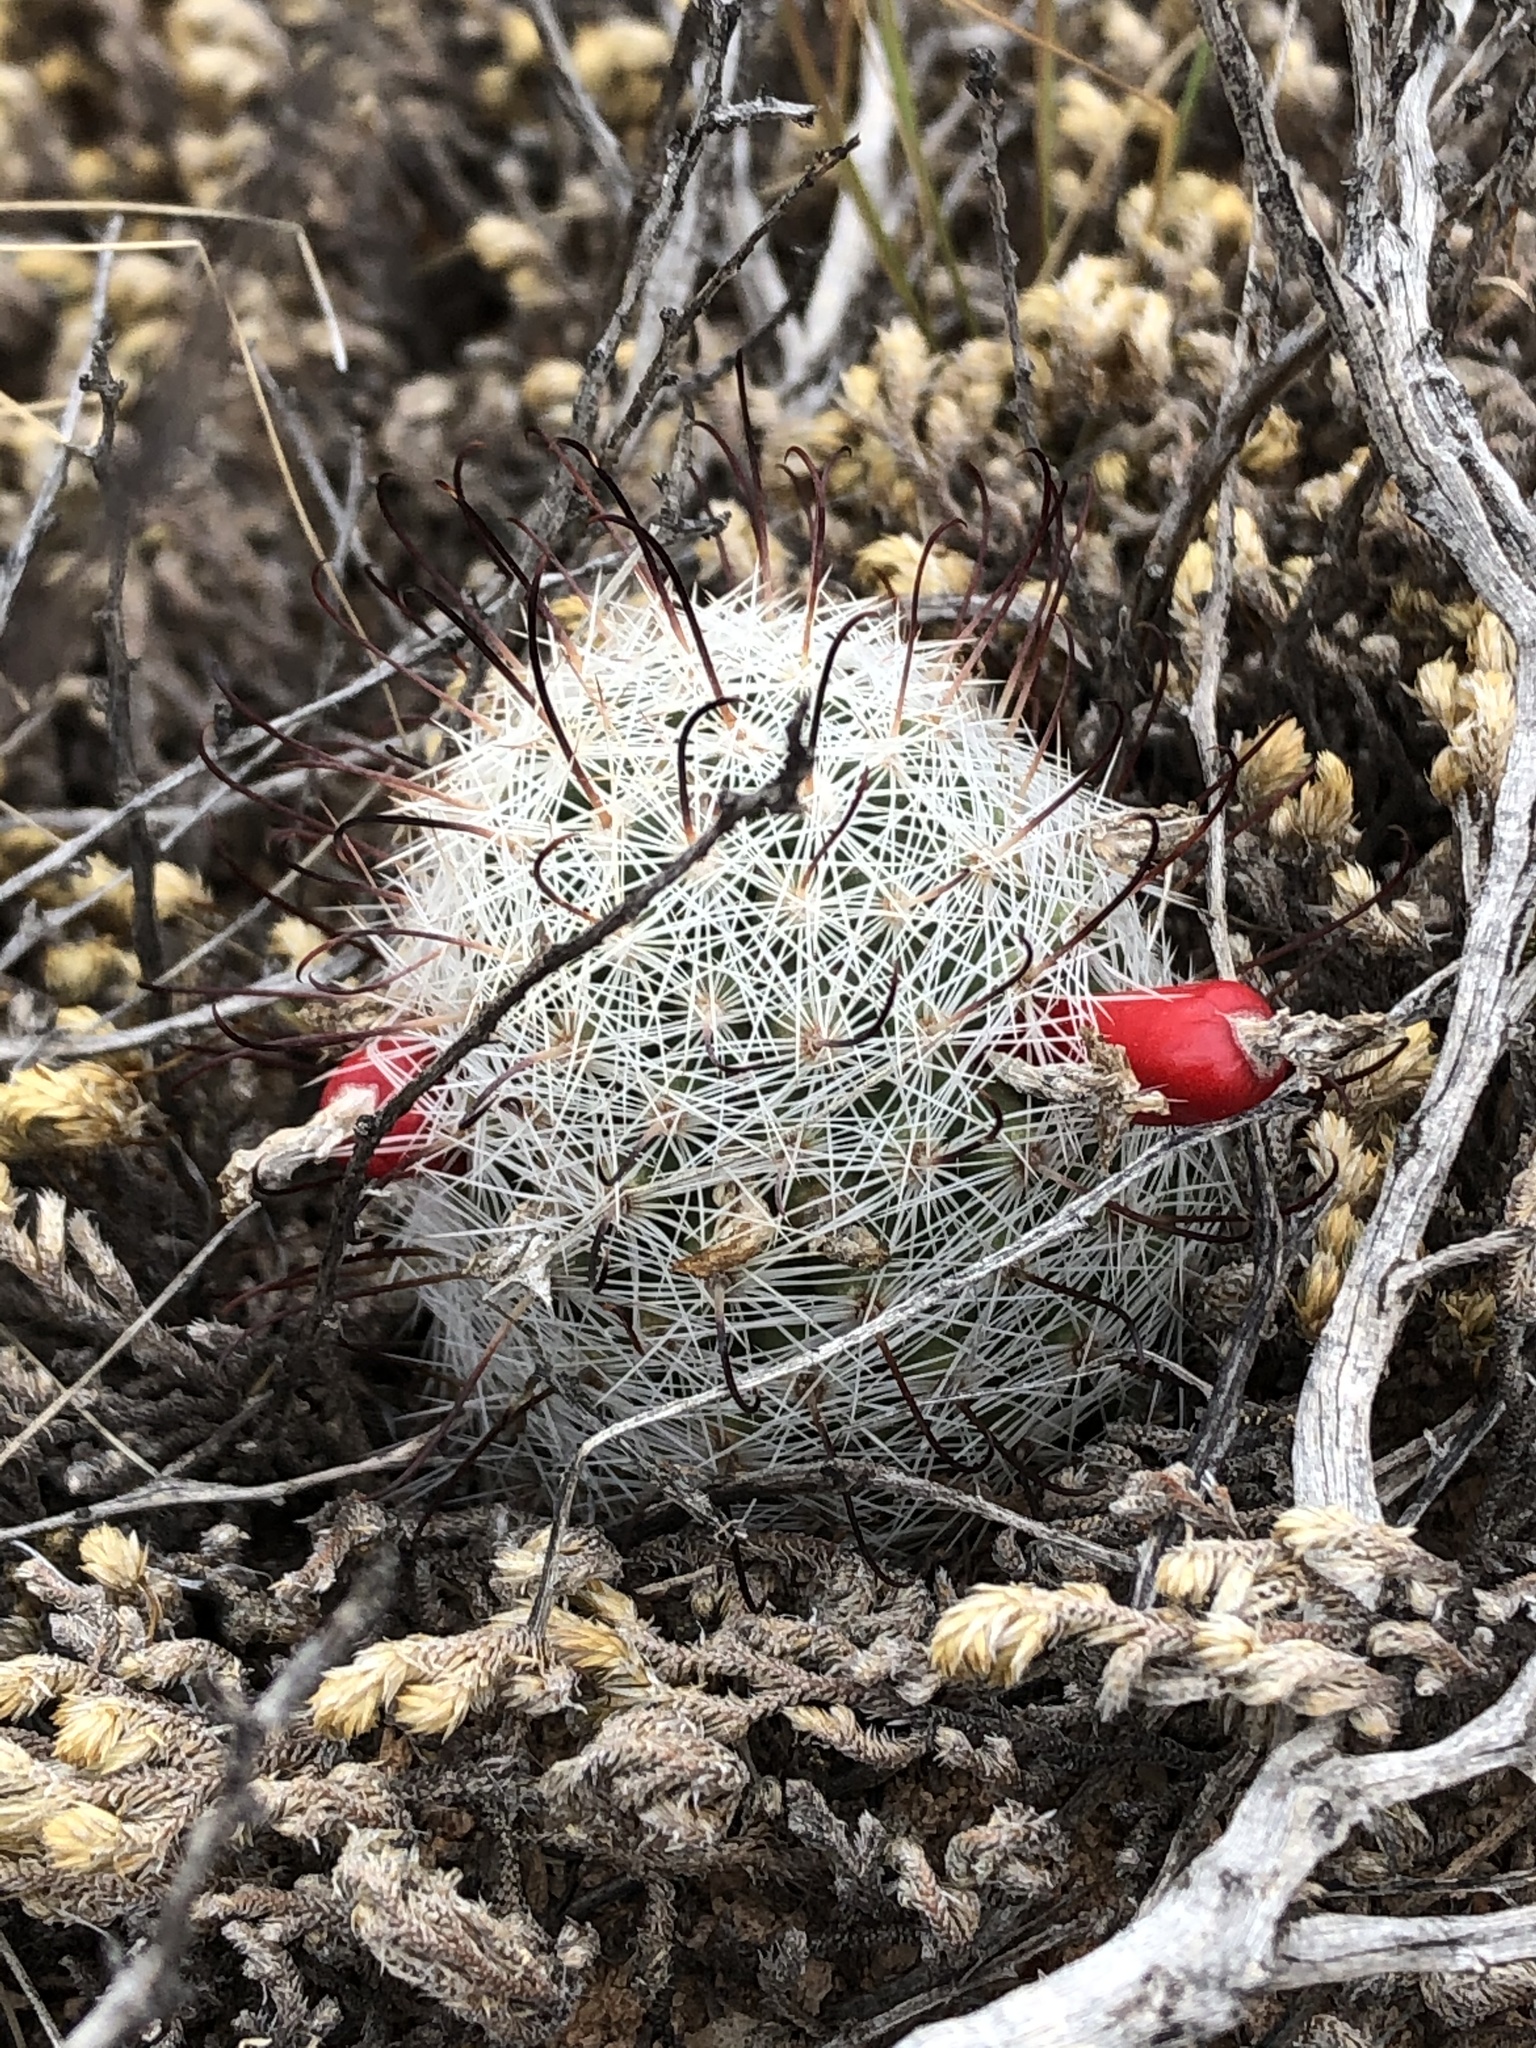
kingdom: Plantae
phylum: Tracheophyta
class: Magnoliopsida
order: Caryophyllales
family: Cactaceae
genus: Cochemiea
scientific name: Cochemiea grahamii
